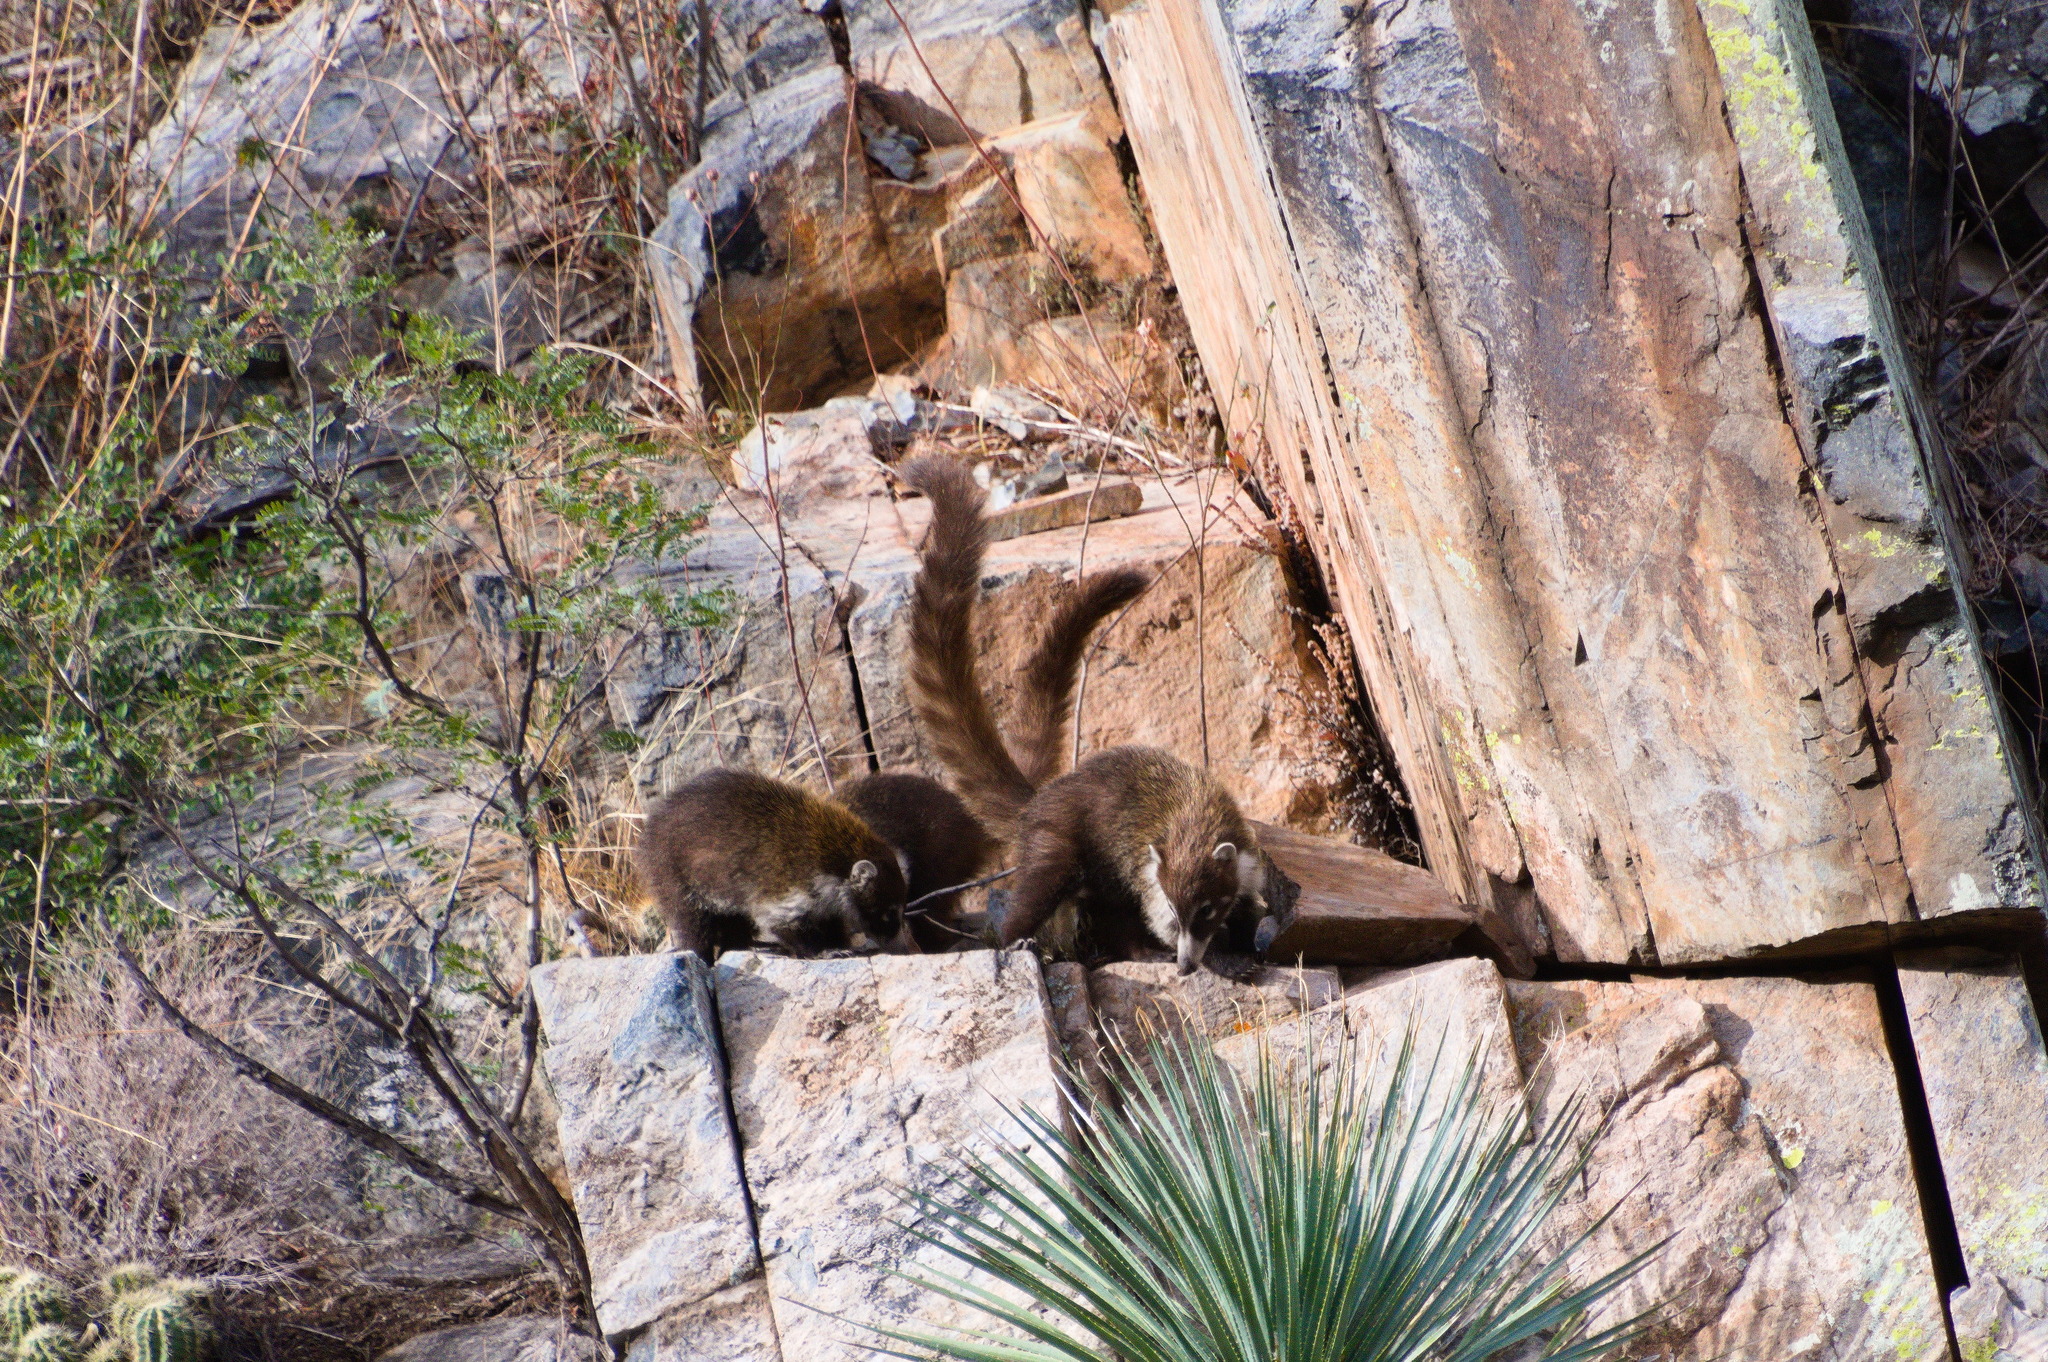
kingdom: Animalia
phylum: Chordata
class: Mammalia
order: Carnivora
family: Procyonidae
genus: Nasua
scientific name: Nasua narica
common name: White-nosed coati
